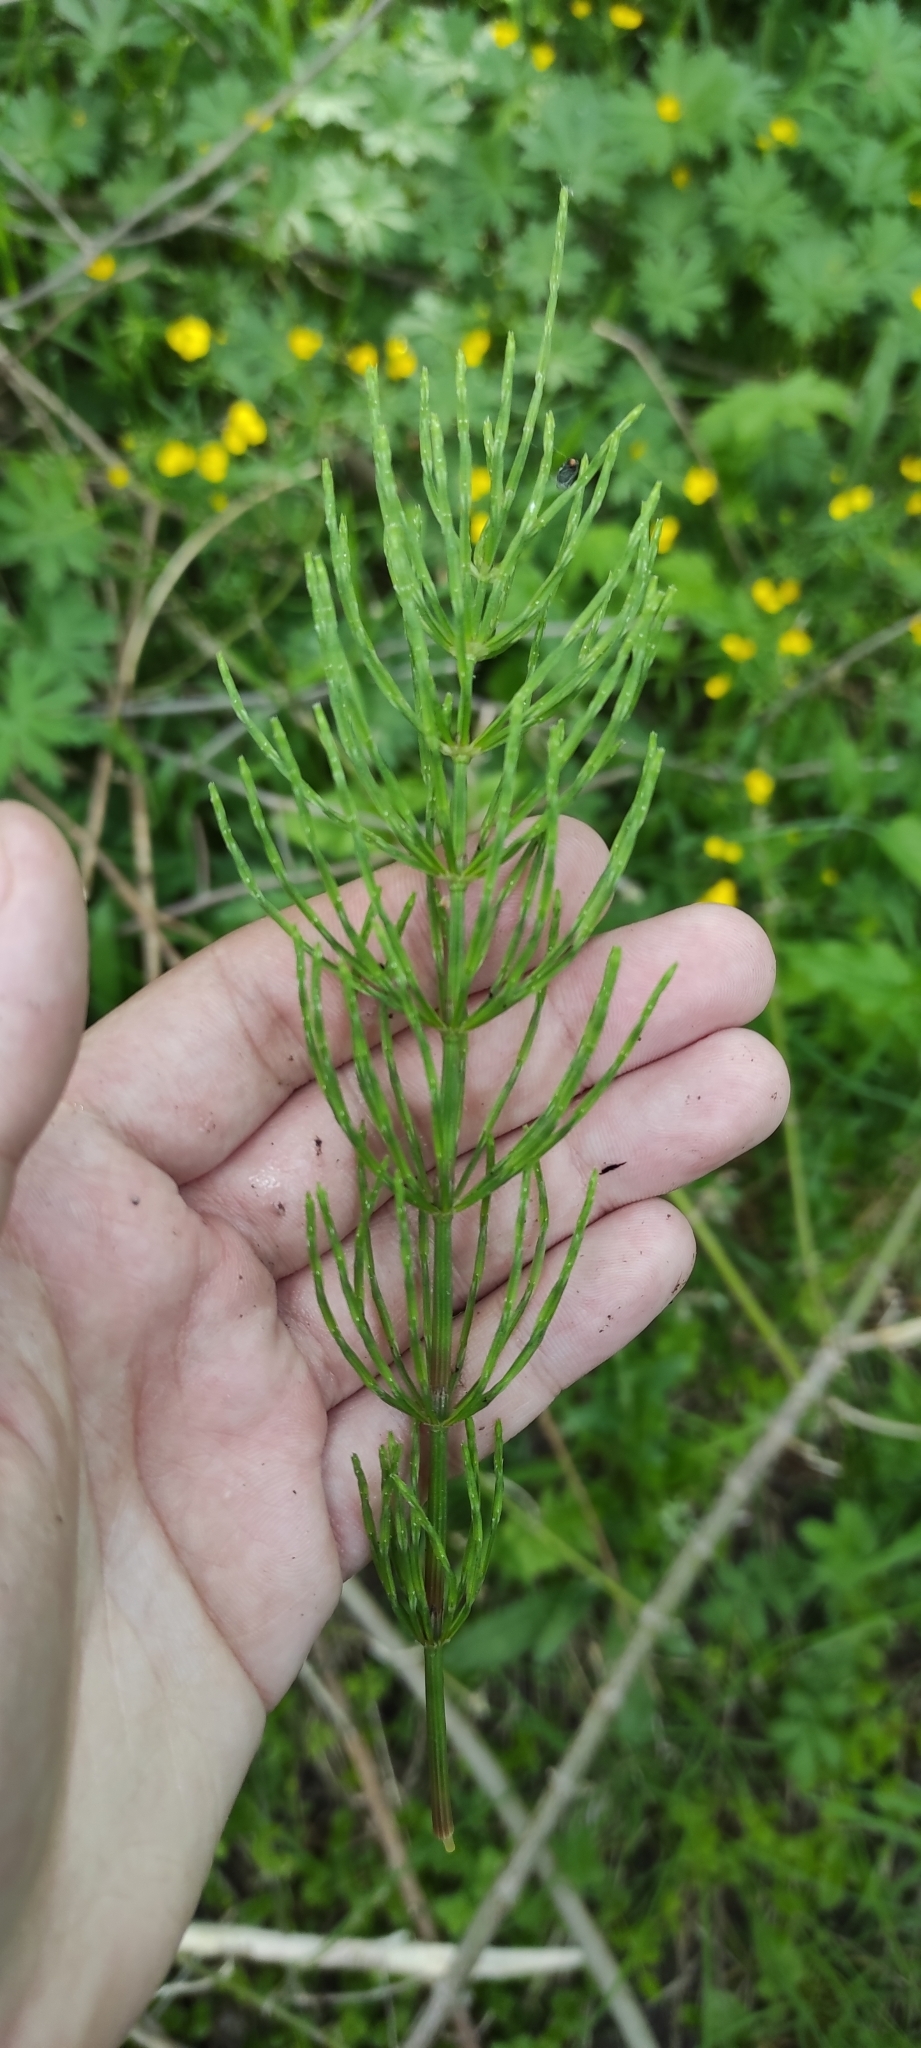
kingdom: Plantae
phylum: Tracheophyta
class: Polypodiopsida
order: Equisetales
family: Equisetaceae
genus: Equisetum
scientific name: Equisetum arvense
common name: Field horsetail
